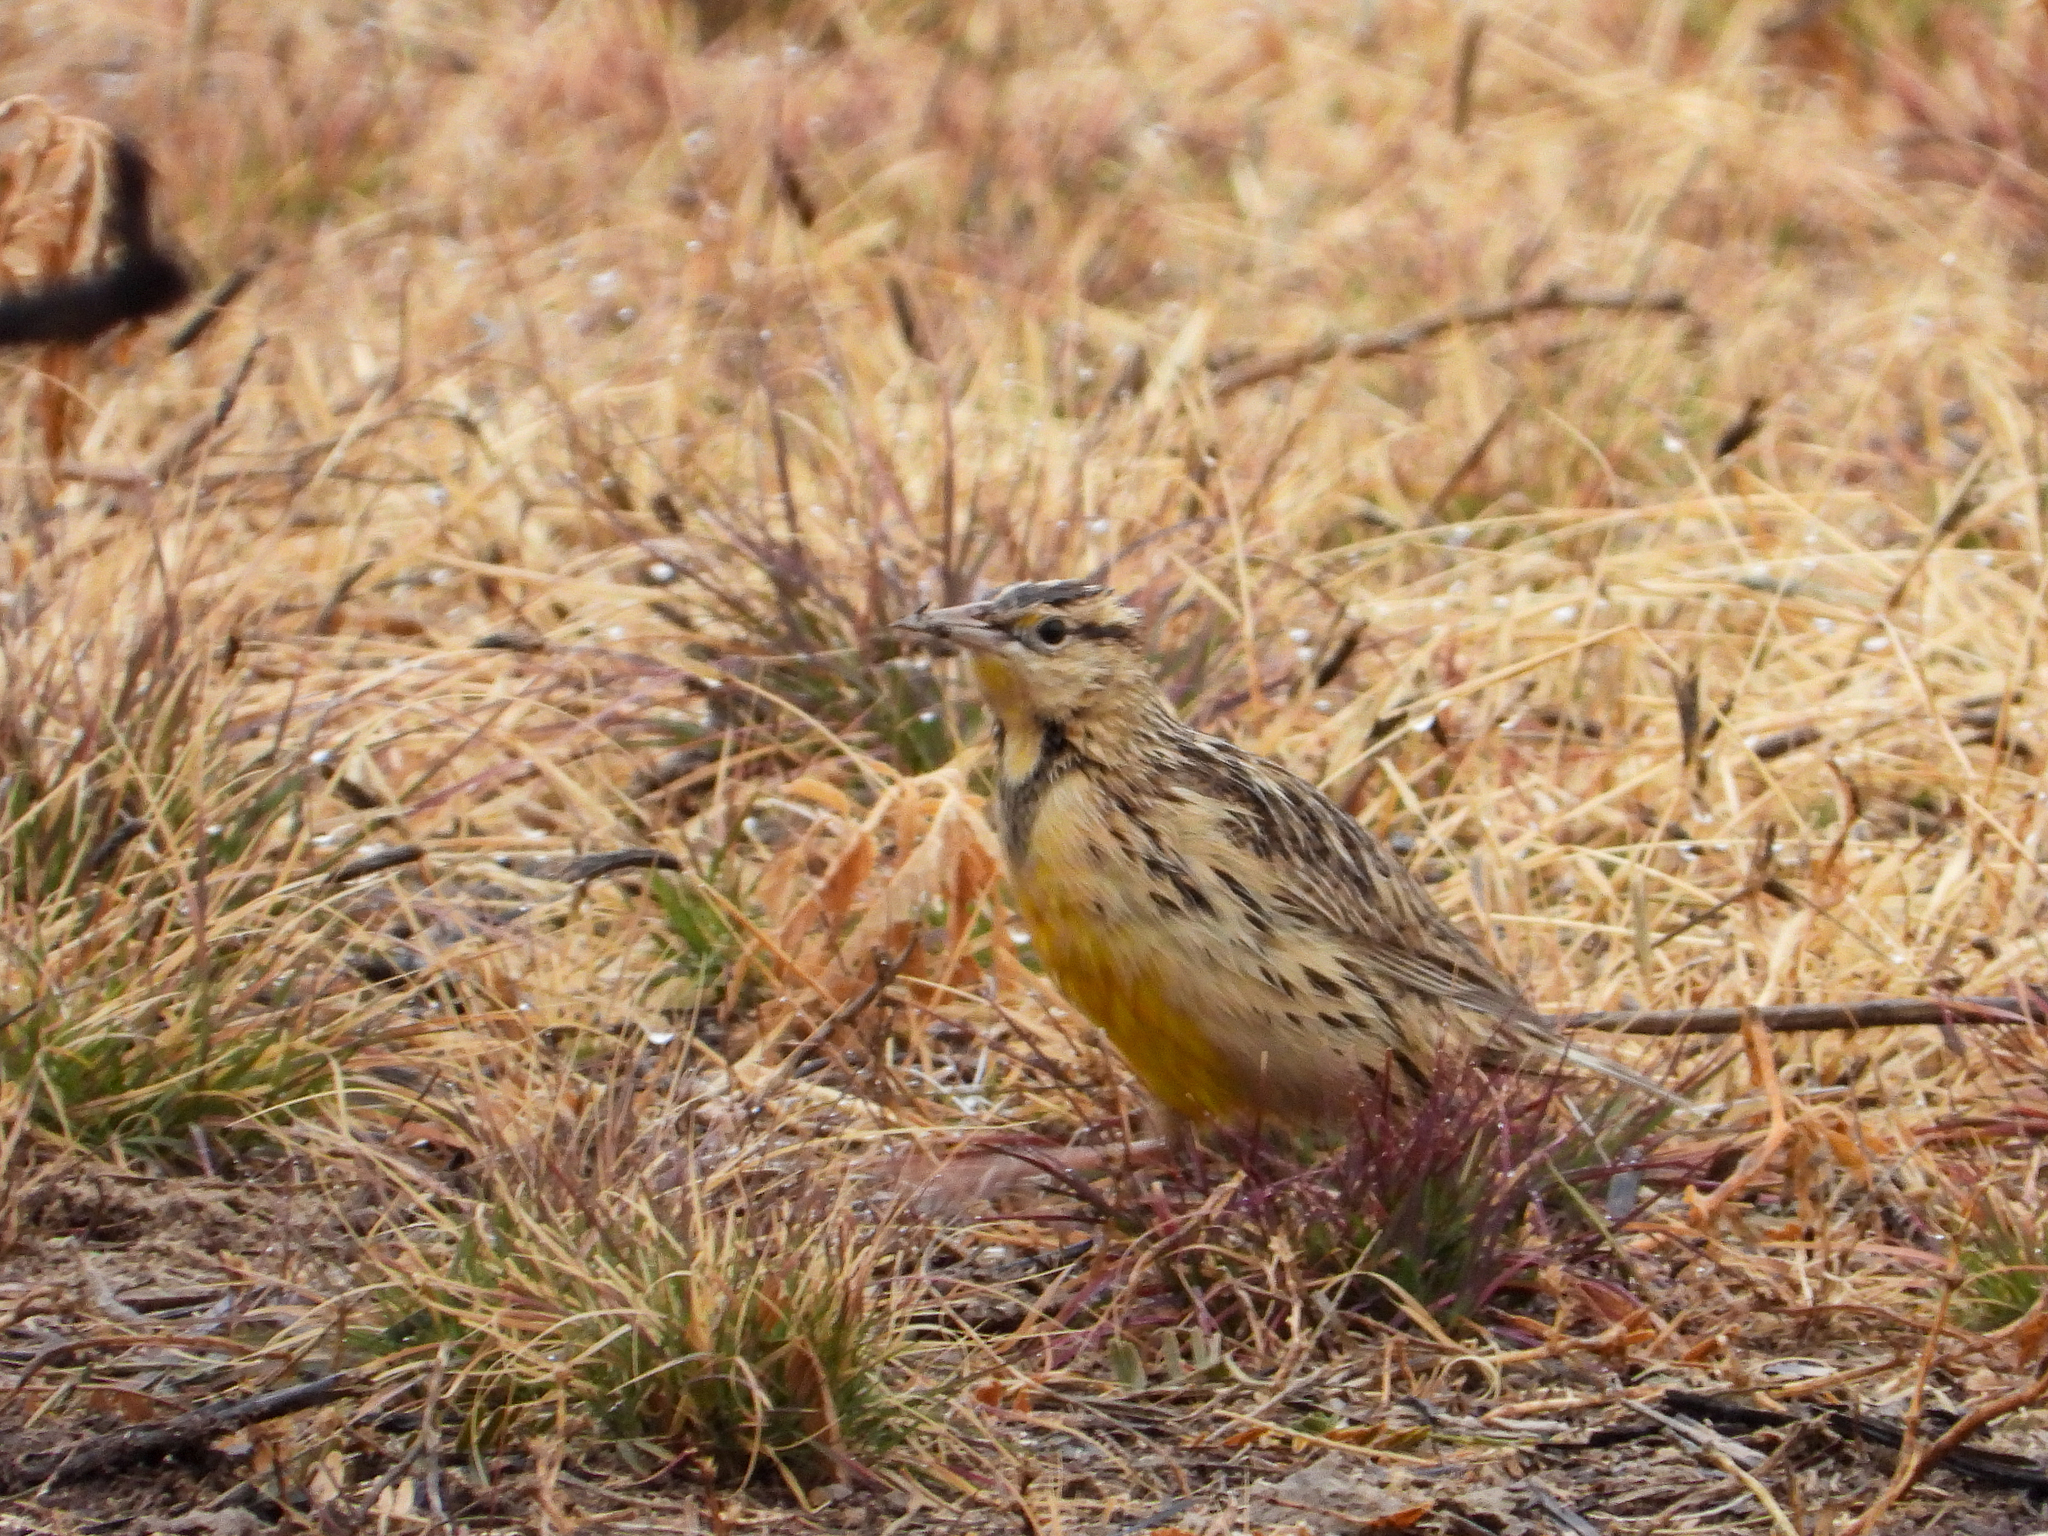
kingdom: Animalia
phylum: Chordata
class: Aves
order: Passeriformes
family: Icteridae
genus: Sturnella
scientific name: Sturnella lilianae
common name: Lilian's meadowlark
